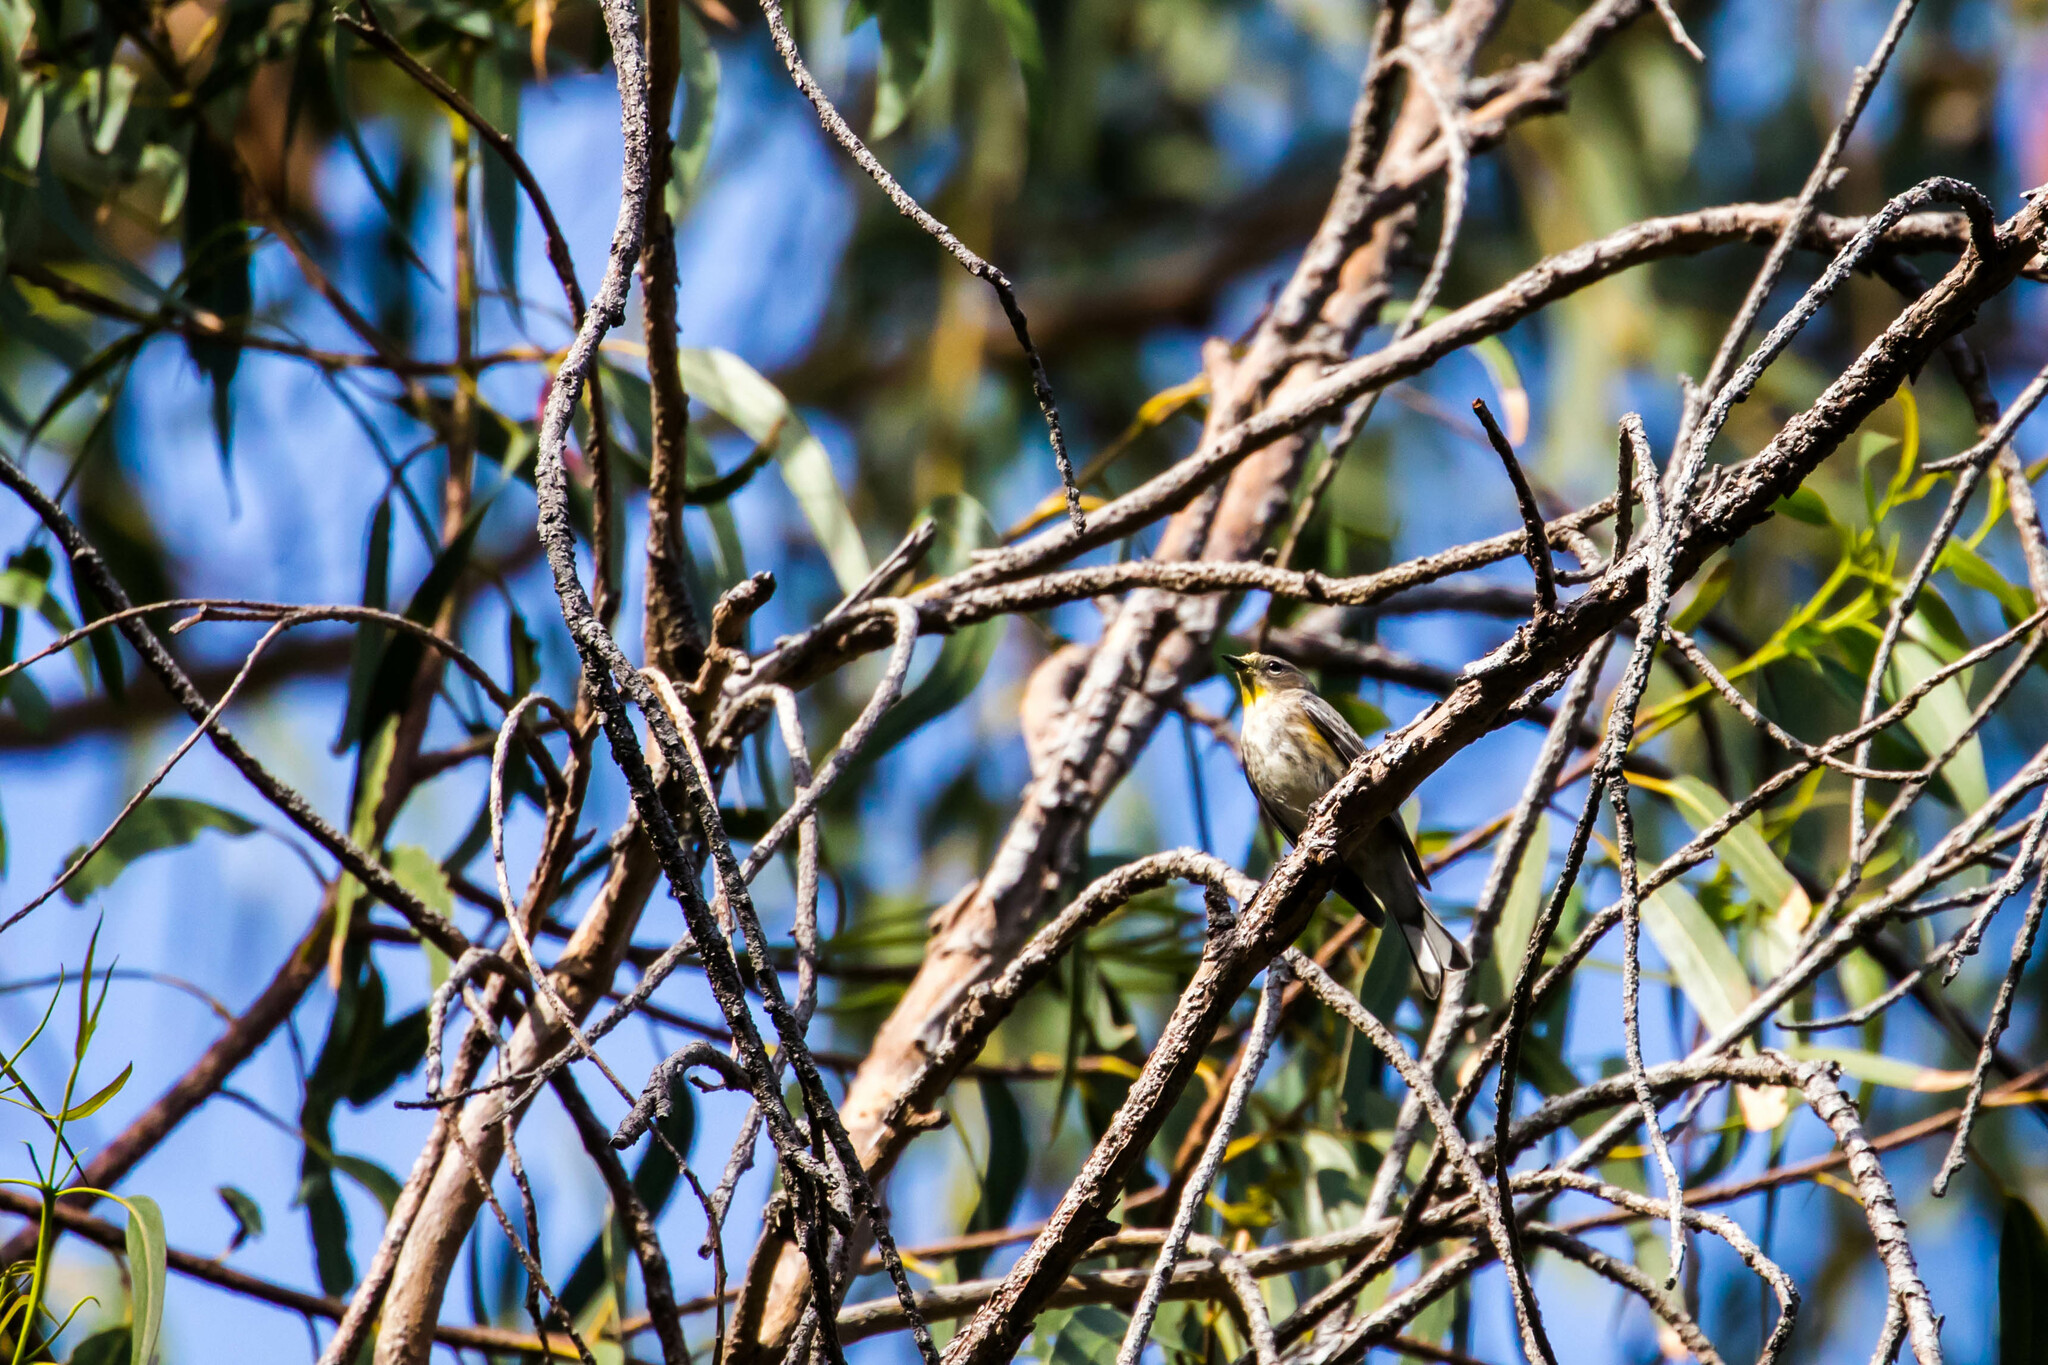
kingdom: Animalia
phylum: Chordata
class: Aves
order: Passeriformes
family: Parulidae
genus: Setophaga
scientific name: Setophaga auduboni
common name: Audubon's warbler
